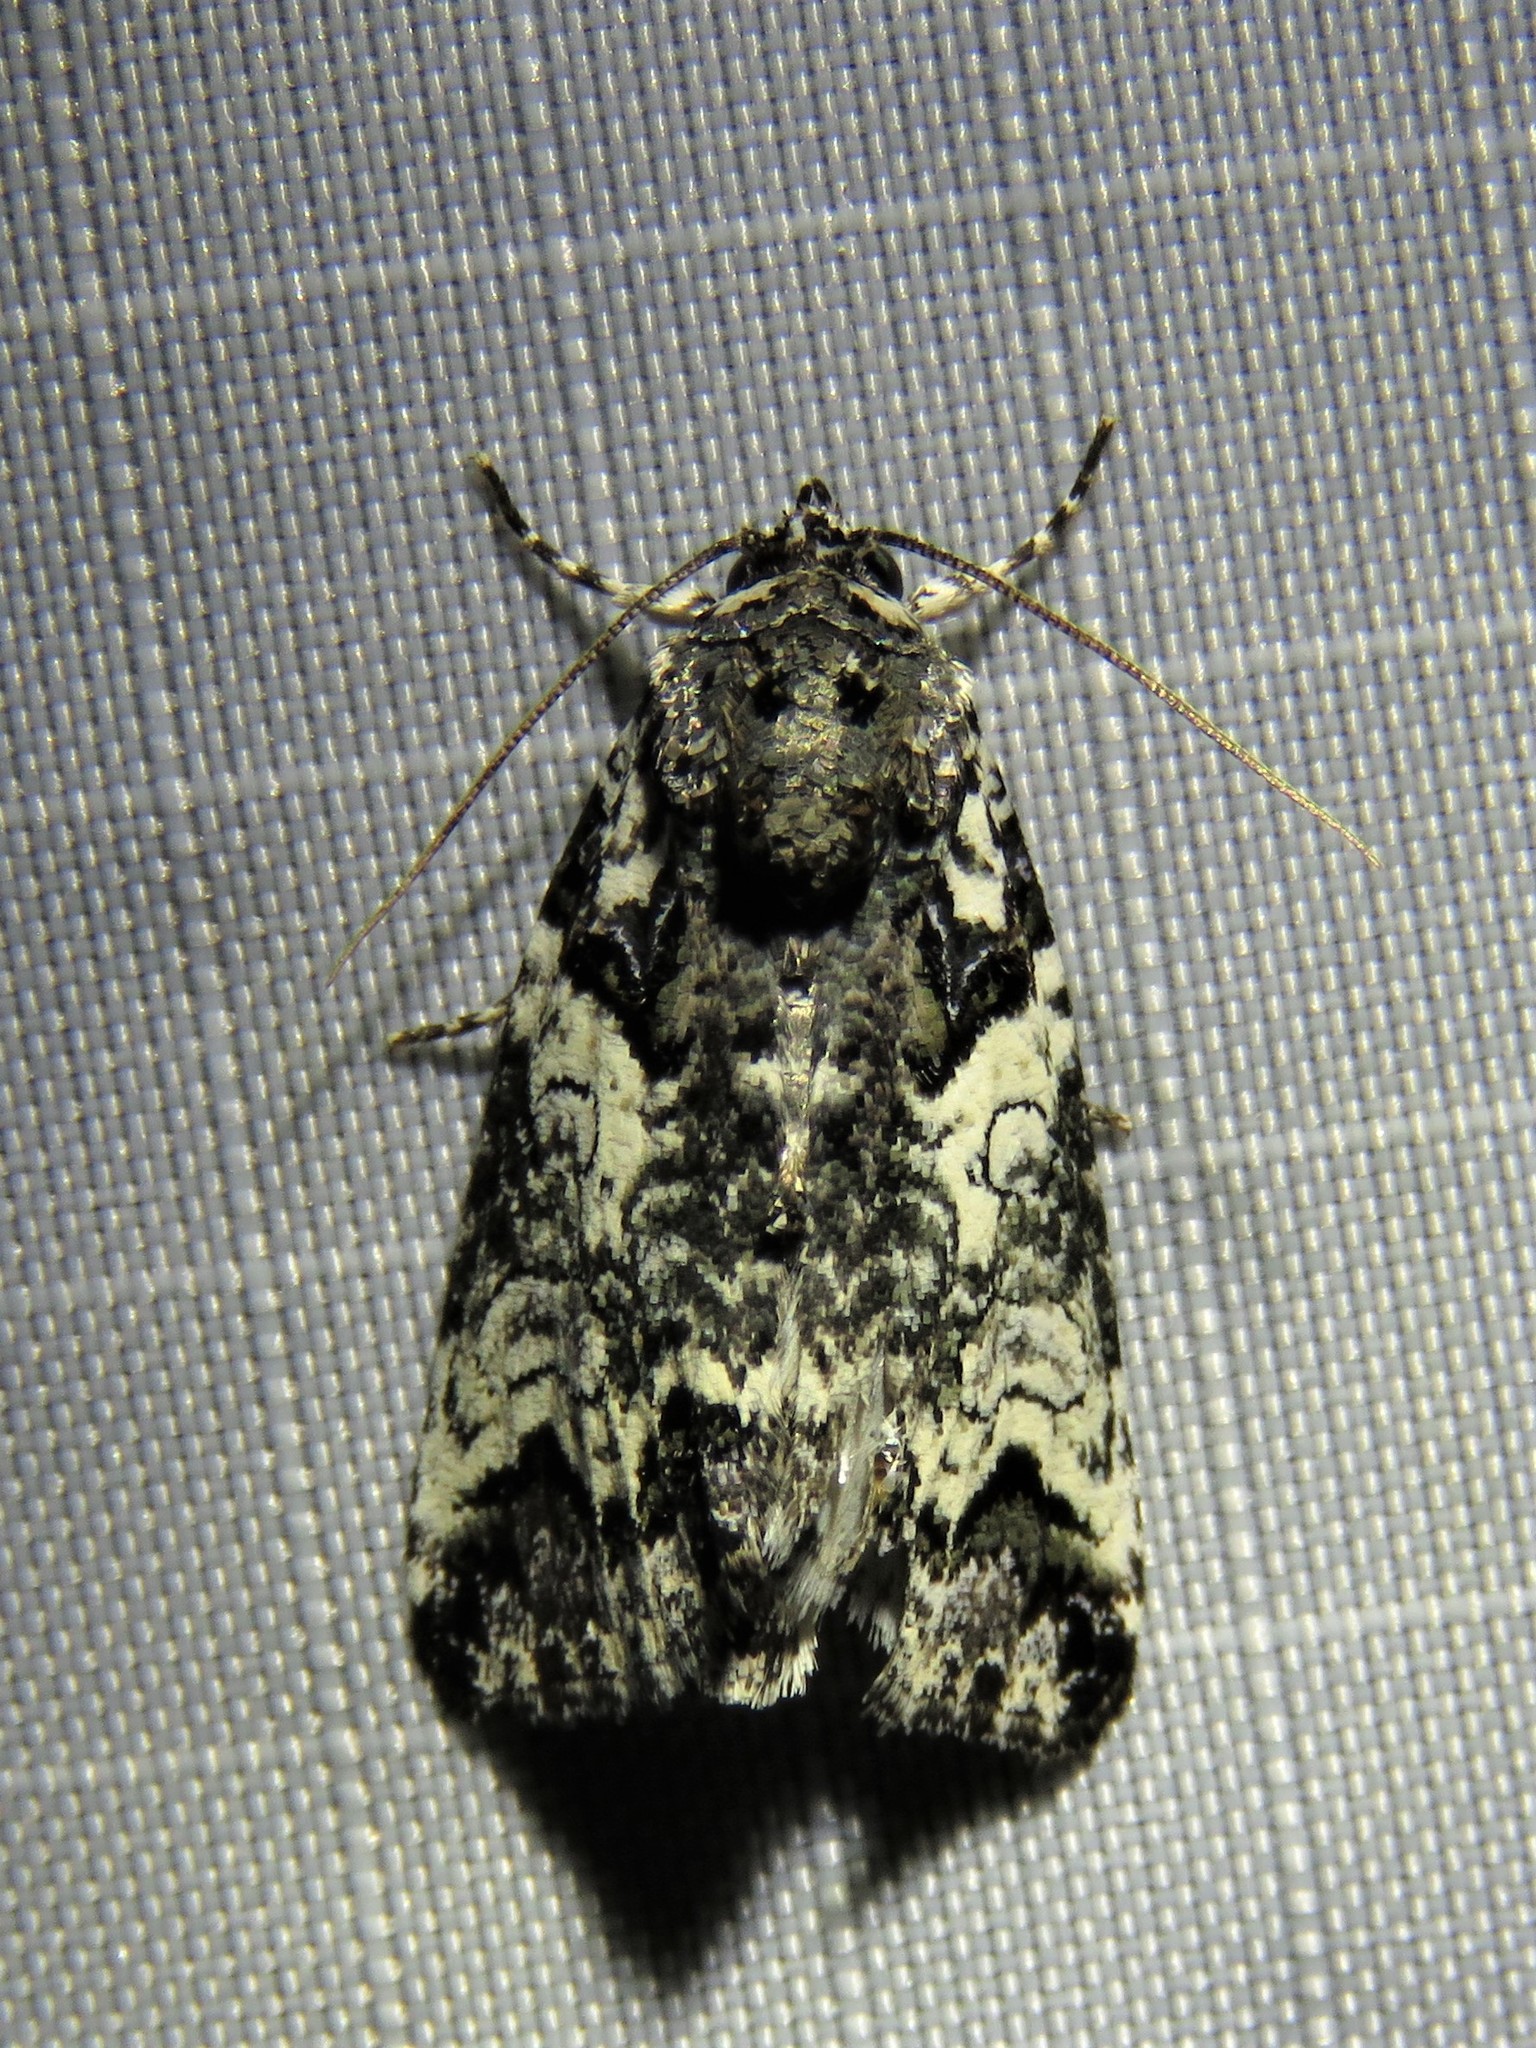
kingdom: Animalia
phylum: Arthropoda
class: Insecta
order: Lepidoptera
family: Noctuidae
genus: Cerma
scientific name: Cerma cerintha
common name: Tufted bird-dropping moth
